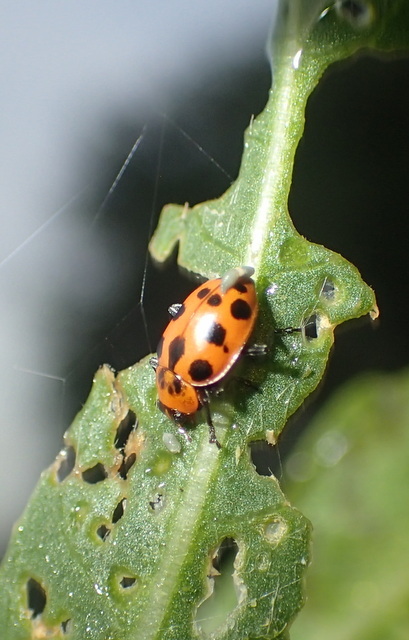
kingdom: Animalia
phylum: Arthropoda
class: Insecta
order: Coleoptera
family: Coccinellidae
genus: Coleomegilla
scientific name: Coleomegilla maculata
